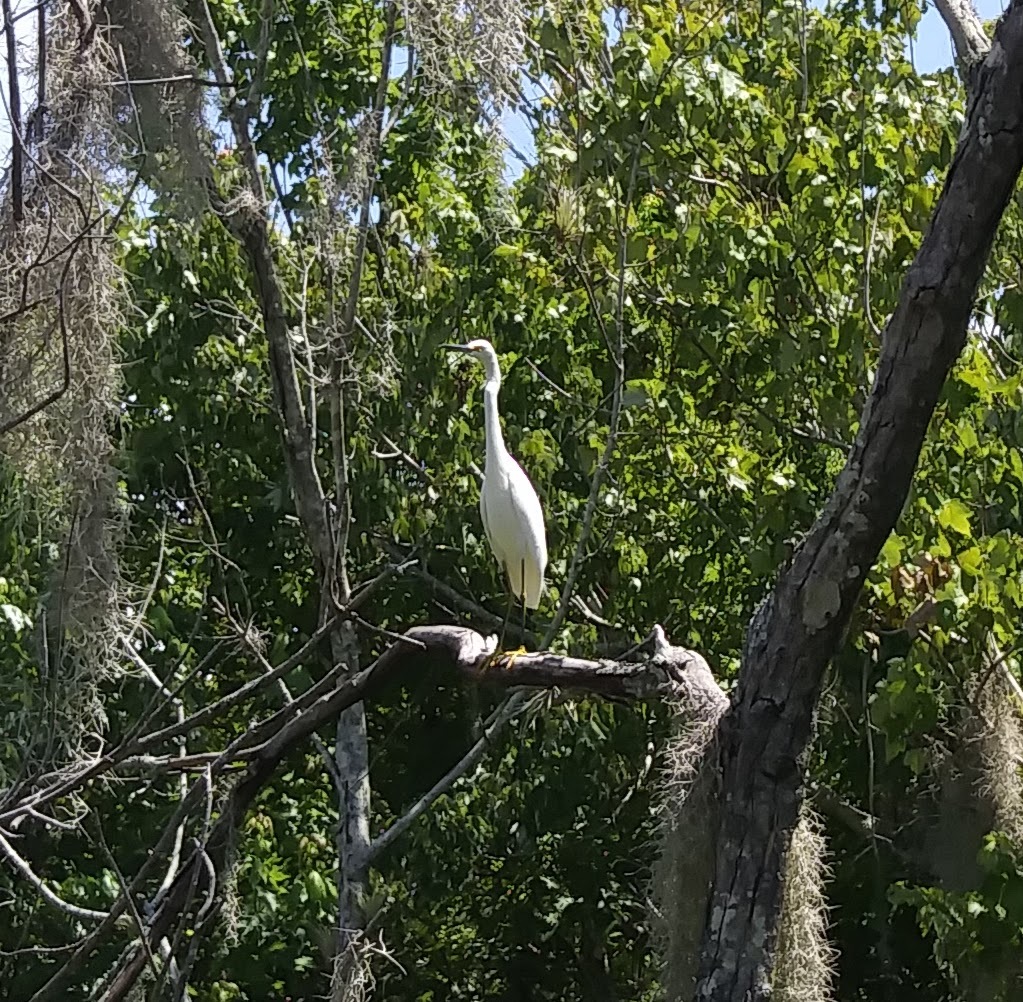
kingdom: Animalia
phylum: Chordata
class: Aves
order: Pelecaniformes
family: Ardeidae
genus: Egretta
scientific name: Egretta thula
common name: Snowy egret
